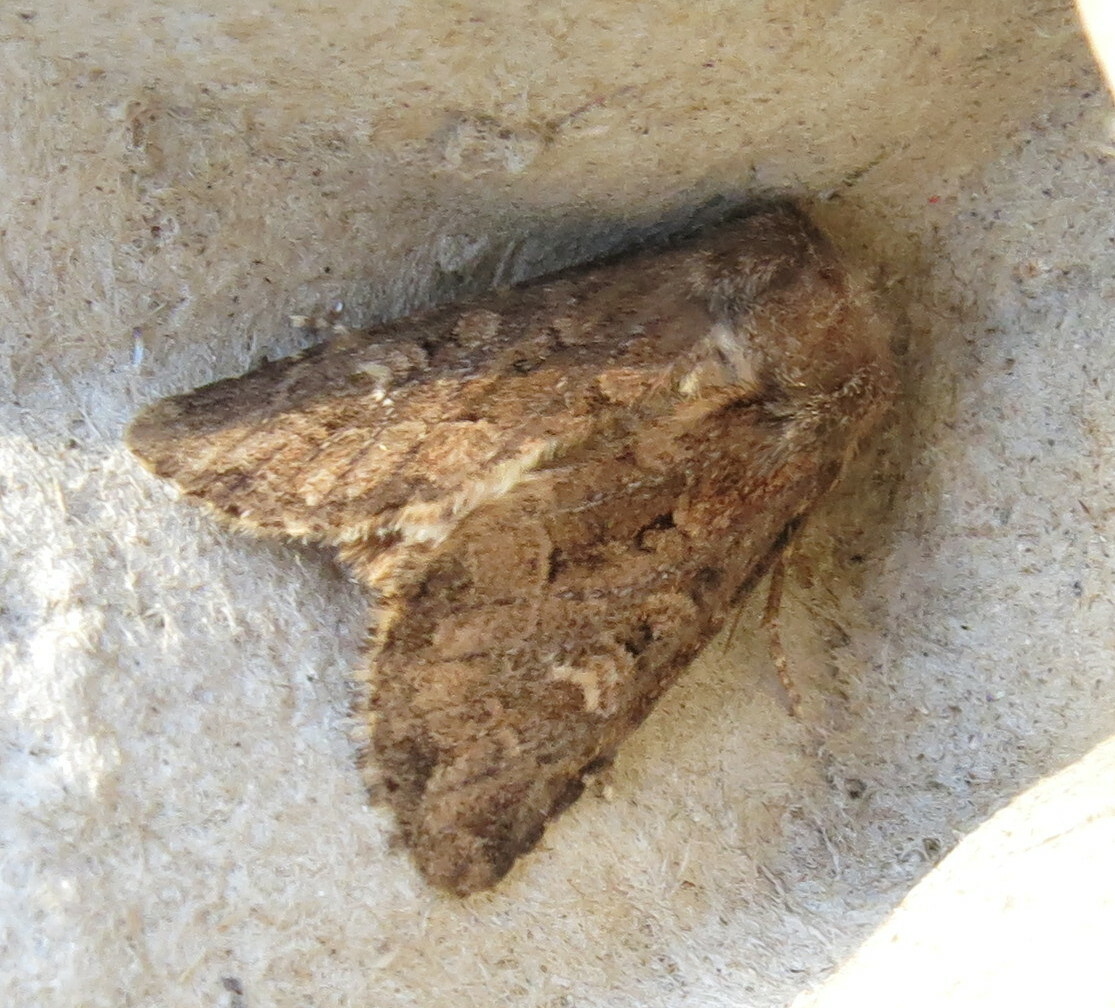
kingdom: Animalia
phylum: Arthropoda
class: Insecta
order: Lepidoptera
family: Noctuidae
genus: Luperina
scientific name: Luperina testacea
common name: Flounced rustic
